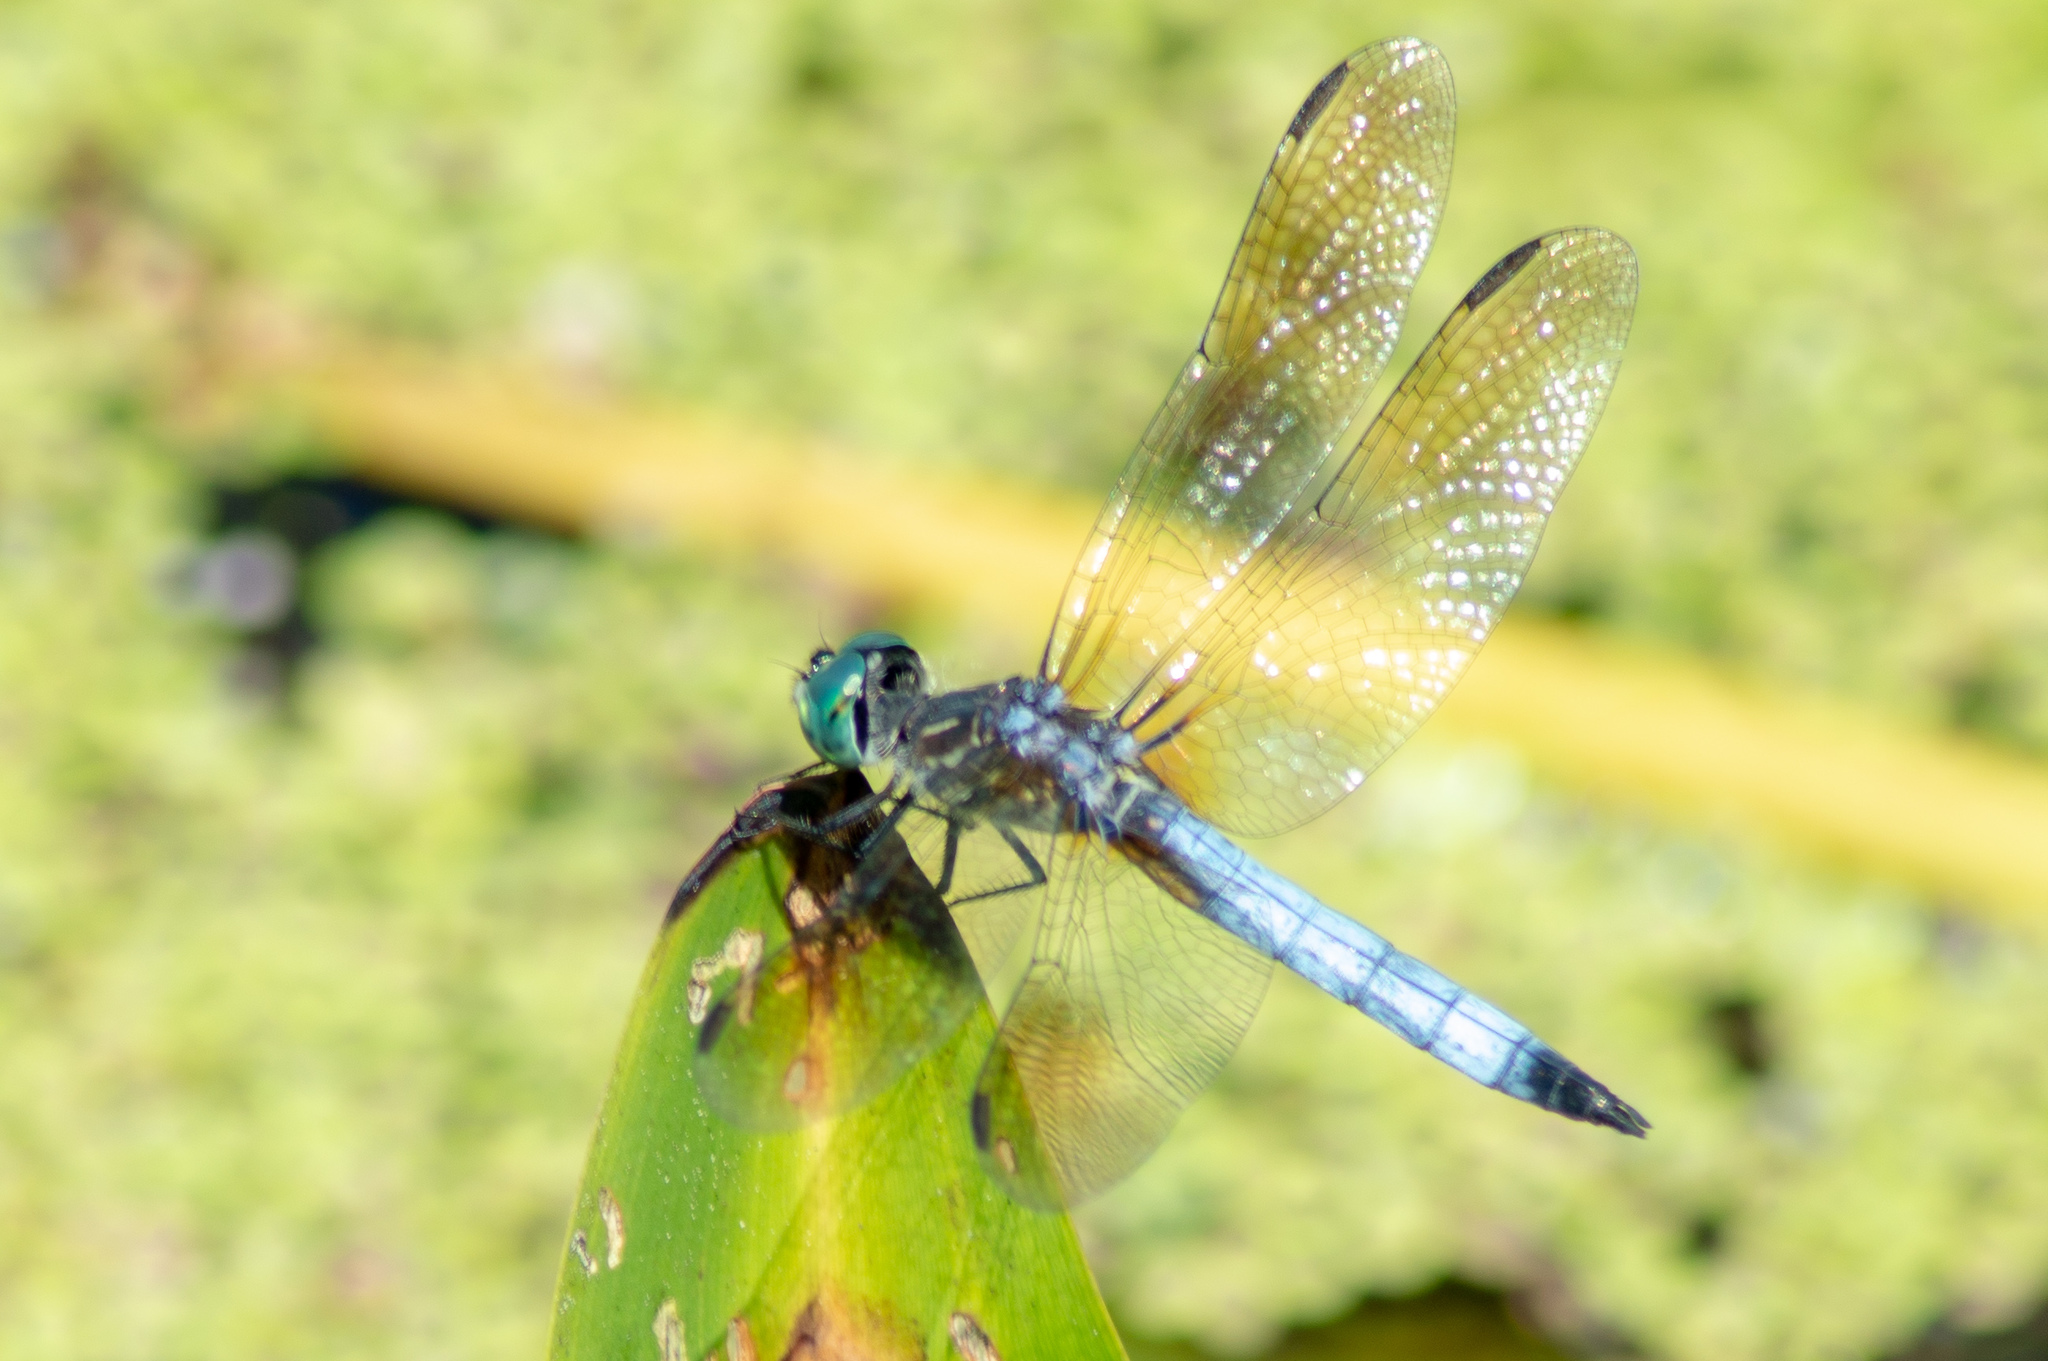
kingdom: Animalia
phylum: Arthropoda
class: Insecta
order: Odonata
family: Libellulidae
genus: Pachydiplax
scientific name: Pachydiplax longipennis
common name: Blue dasher
